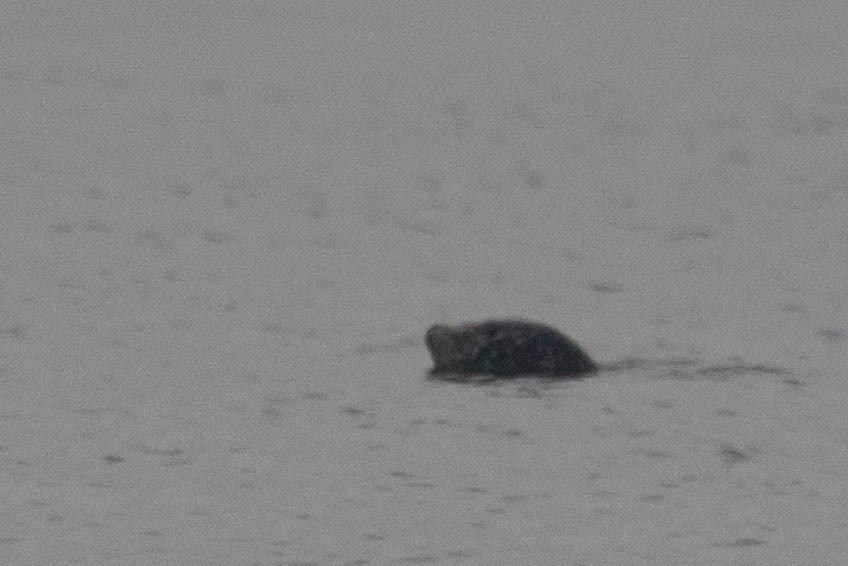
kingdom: Animalia
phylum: Chordata
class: Mammalia
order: Carnivora
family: Phocidae
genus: Phoca
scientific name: Phoca vitulina
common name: Harbor seal
